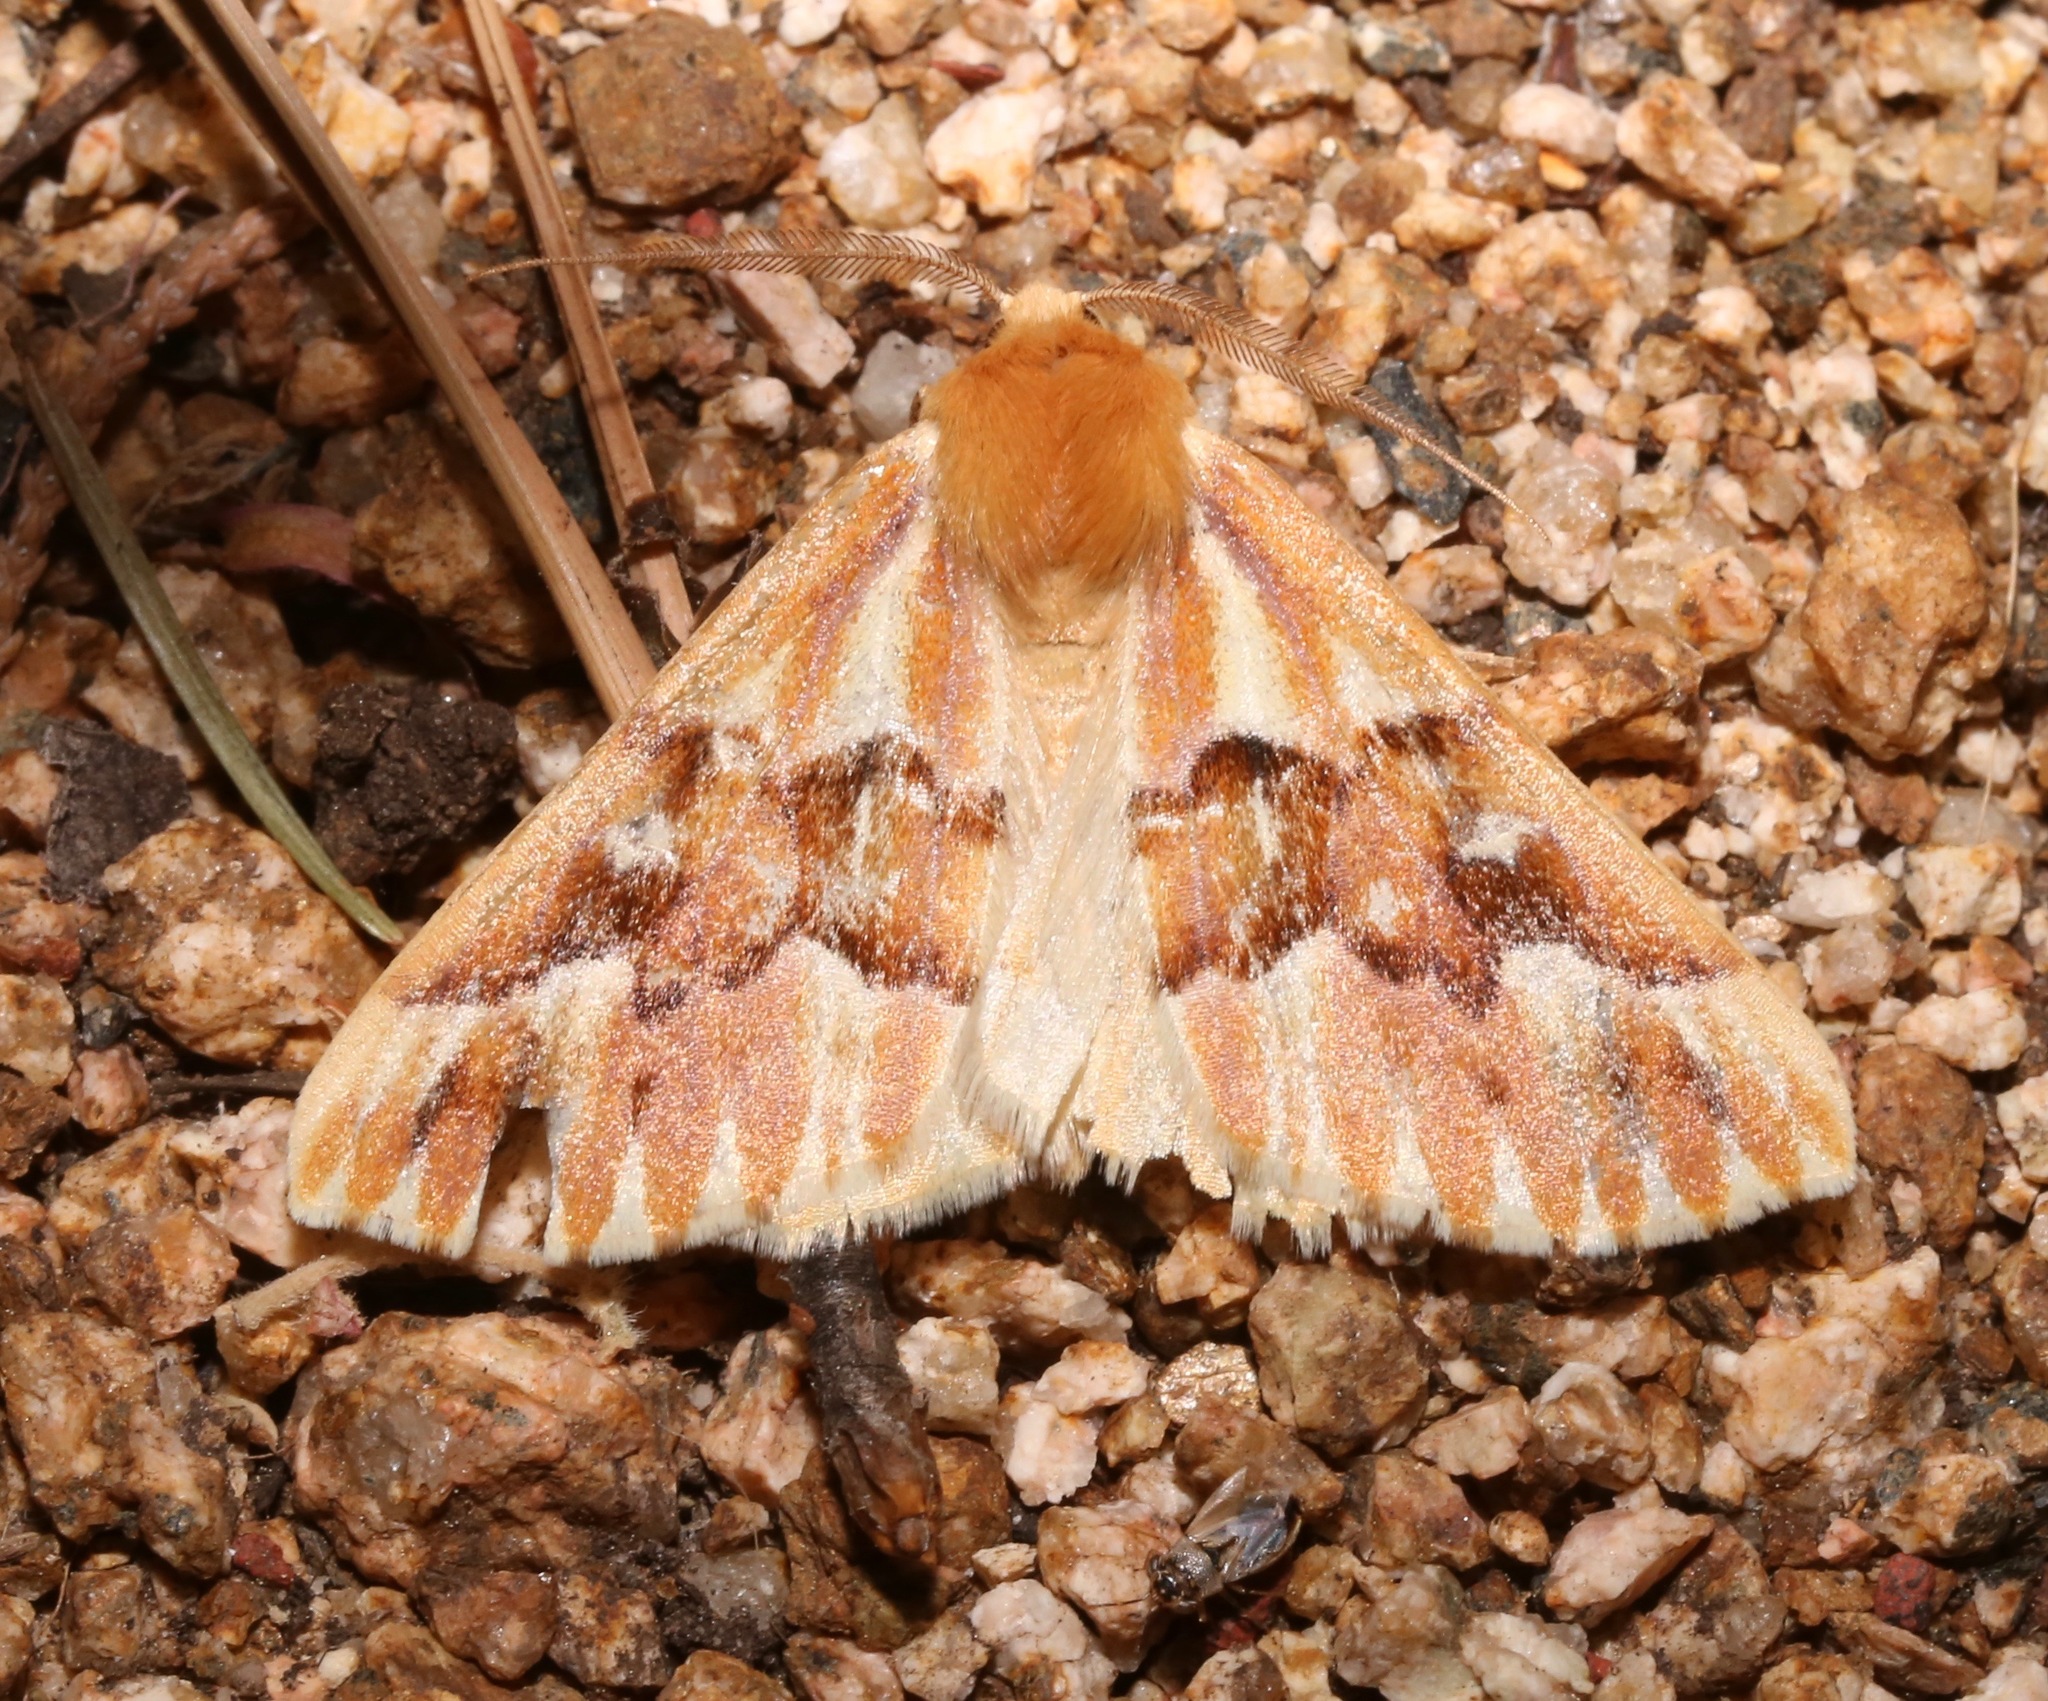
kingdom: Animalia
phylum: Arthropoda
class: Insecta
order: Lepidoptera
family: Geometridae
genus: Caripeta
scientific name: Caripeta aequaliaria
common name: Red girdle moth
